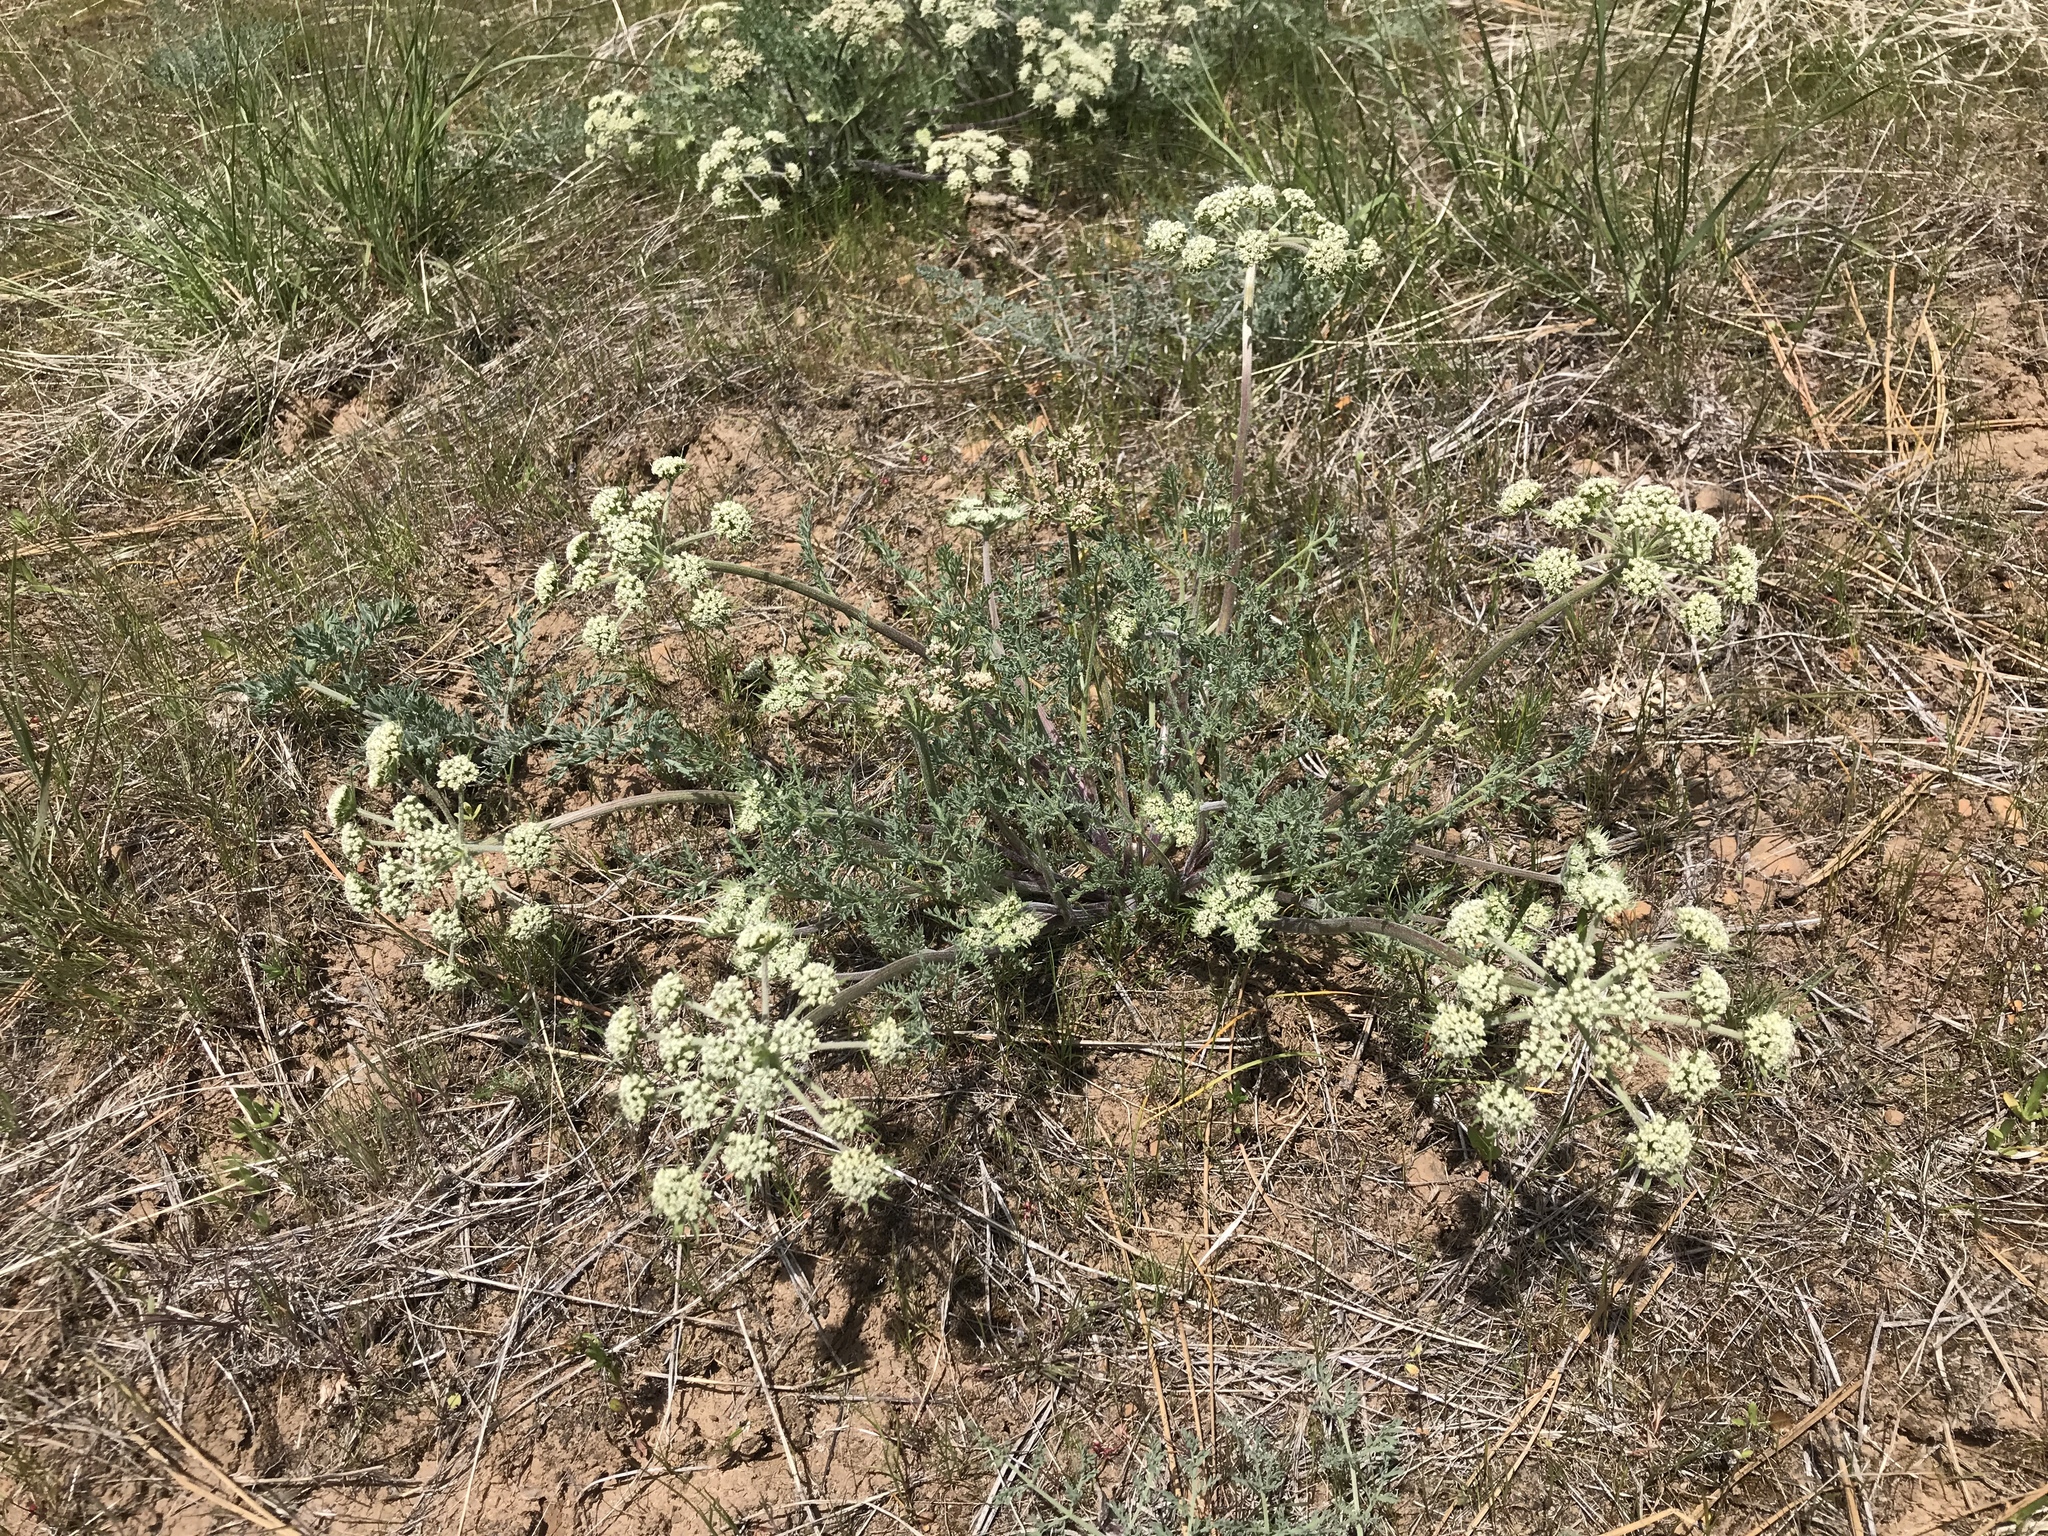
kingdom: Plantae
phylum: Tracheophyta
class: Magnoliopsida
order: Apiales
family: Apiaceae
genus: Lomatium
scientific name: Lomatium macrocarpum
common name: Big-seed biscuitroot
